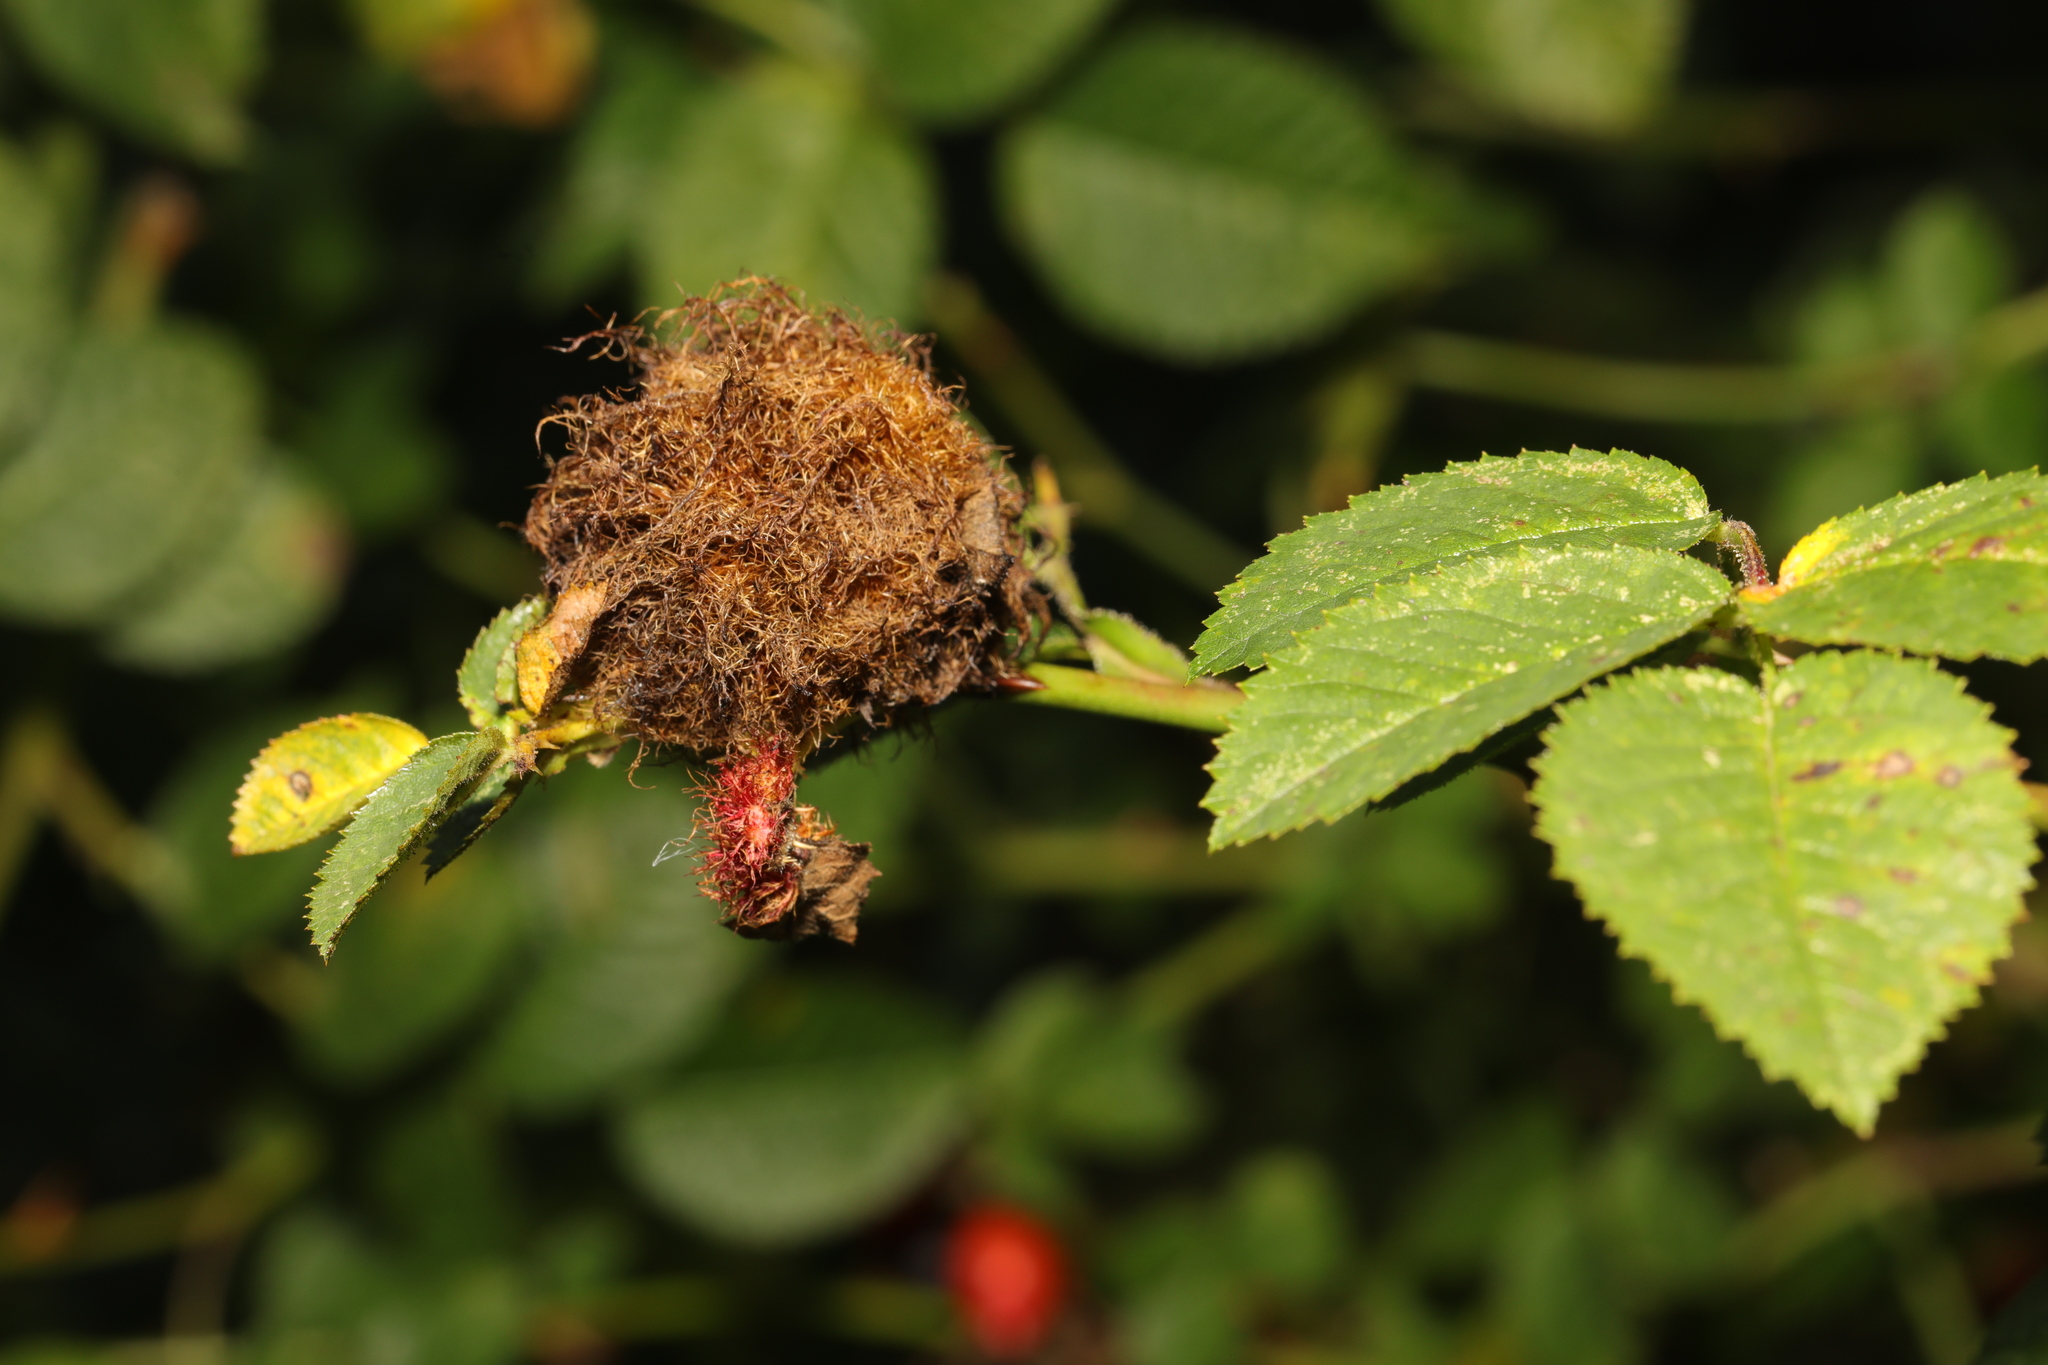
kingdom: Animalia
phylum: Arthropoda
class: Insecta
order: Hymenoptera
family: Cynipidae
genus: Diplolepis
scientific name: Diplolepis rosae
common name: Bedeguar gall
